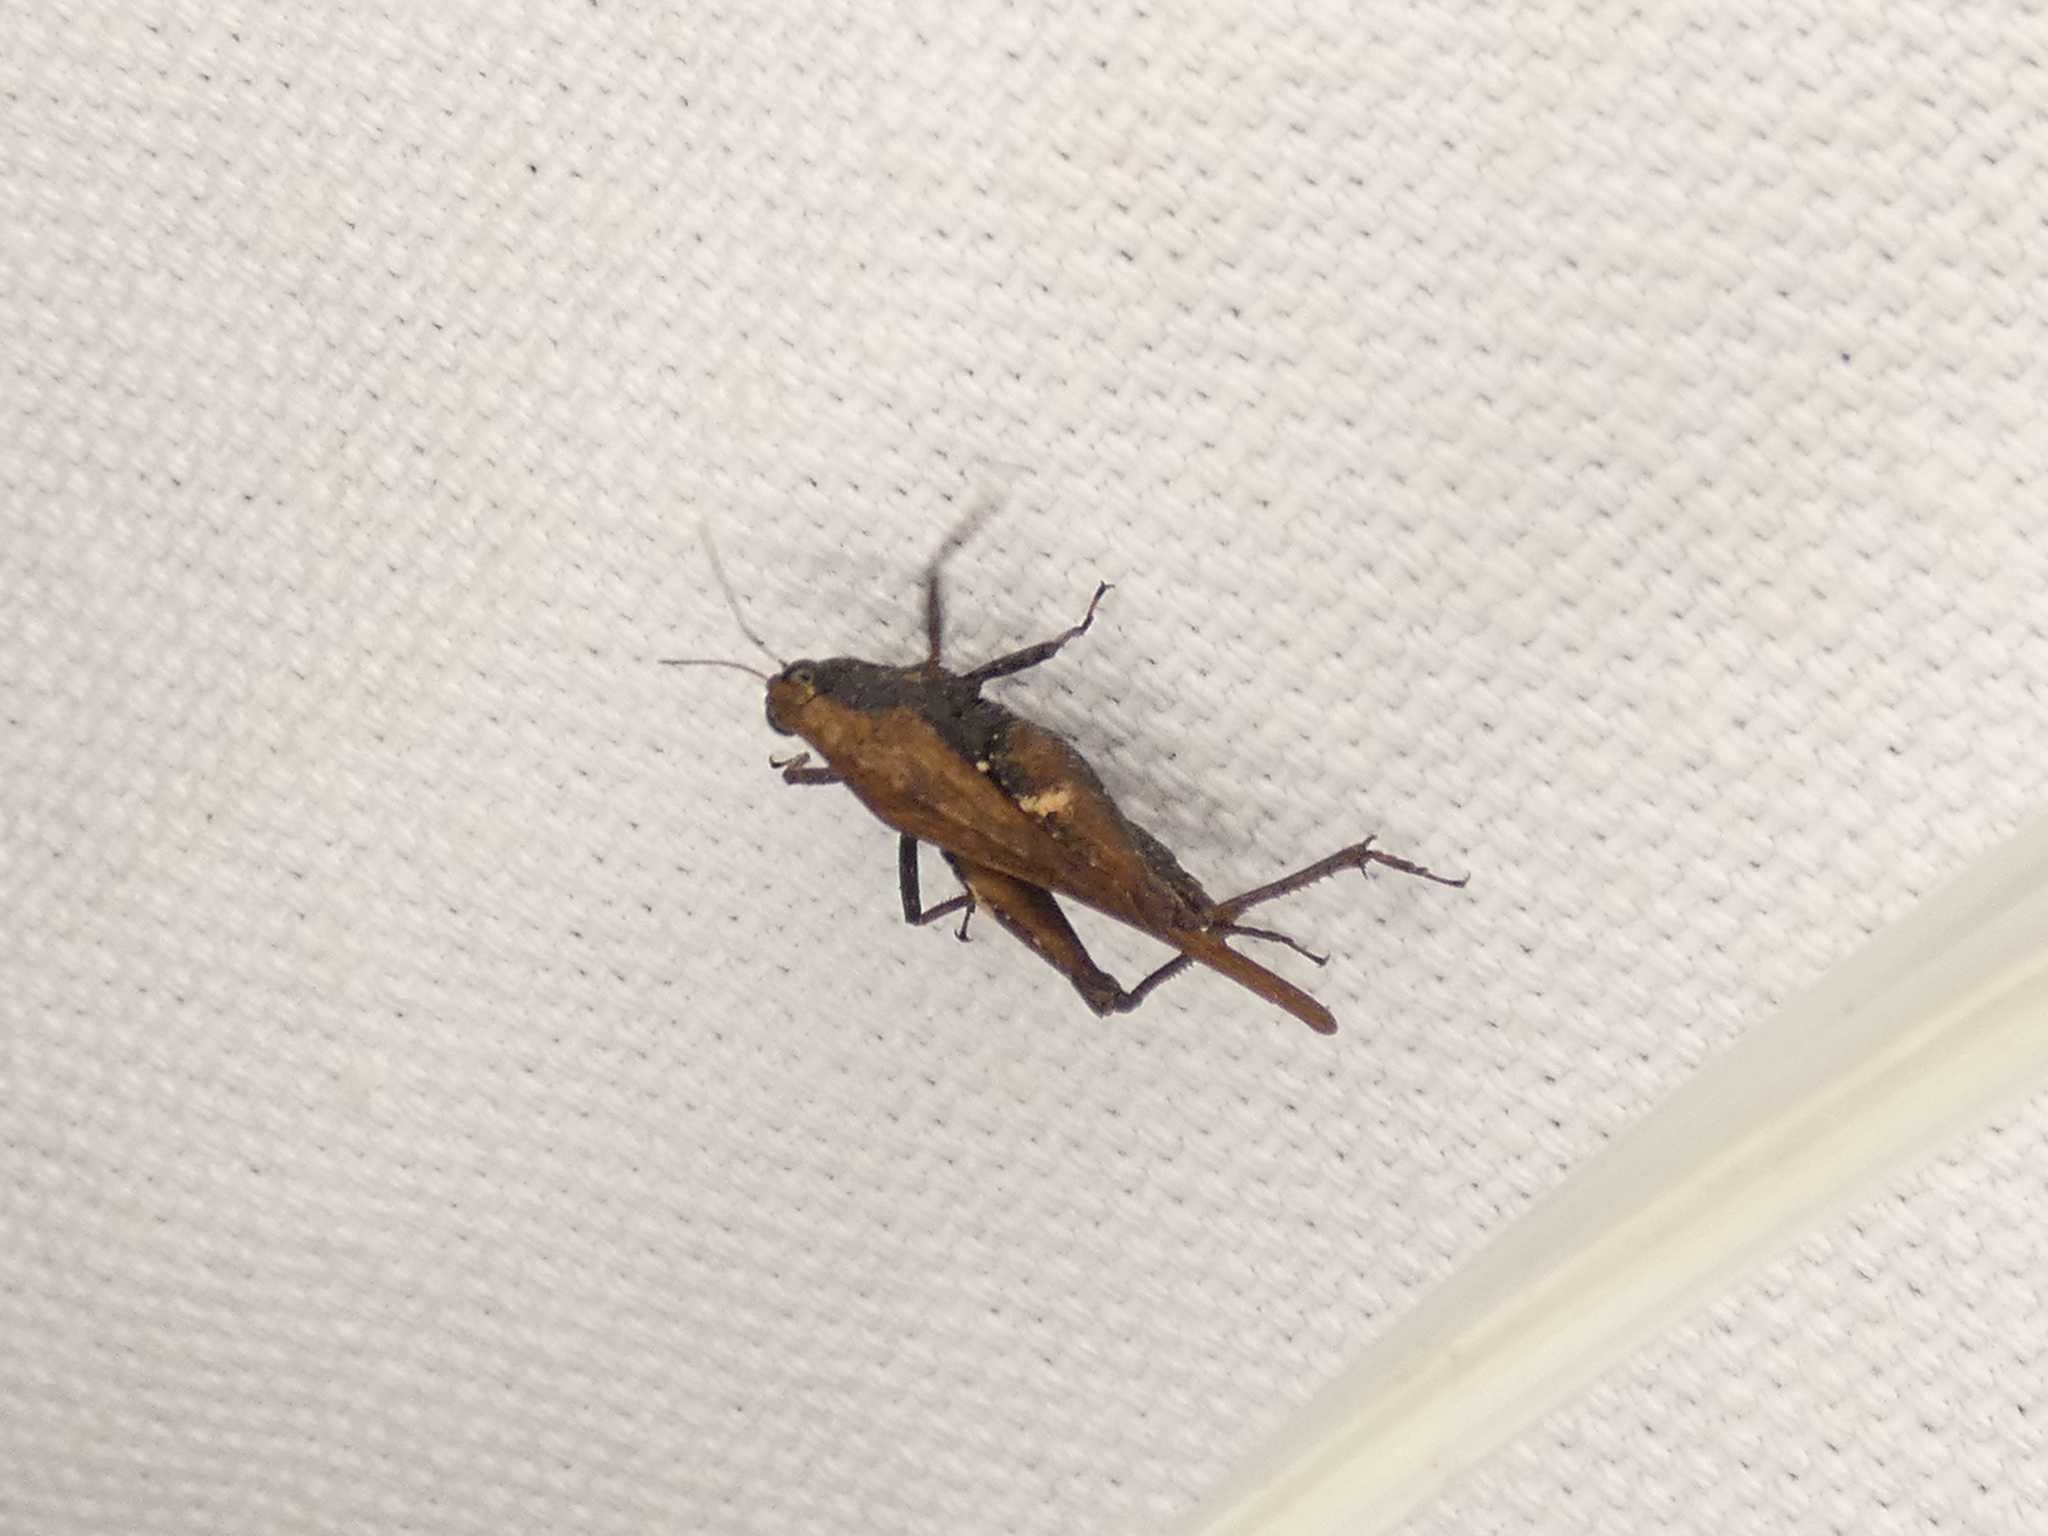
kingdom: Animalia
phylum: Arthropoda
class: Insecta
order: Orthoptera
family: Tetrigidae
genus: Tettigidea
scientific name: Tettigidea laterale
